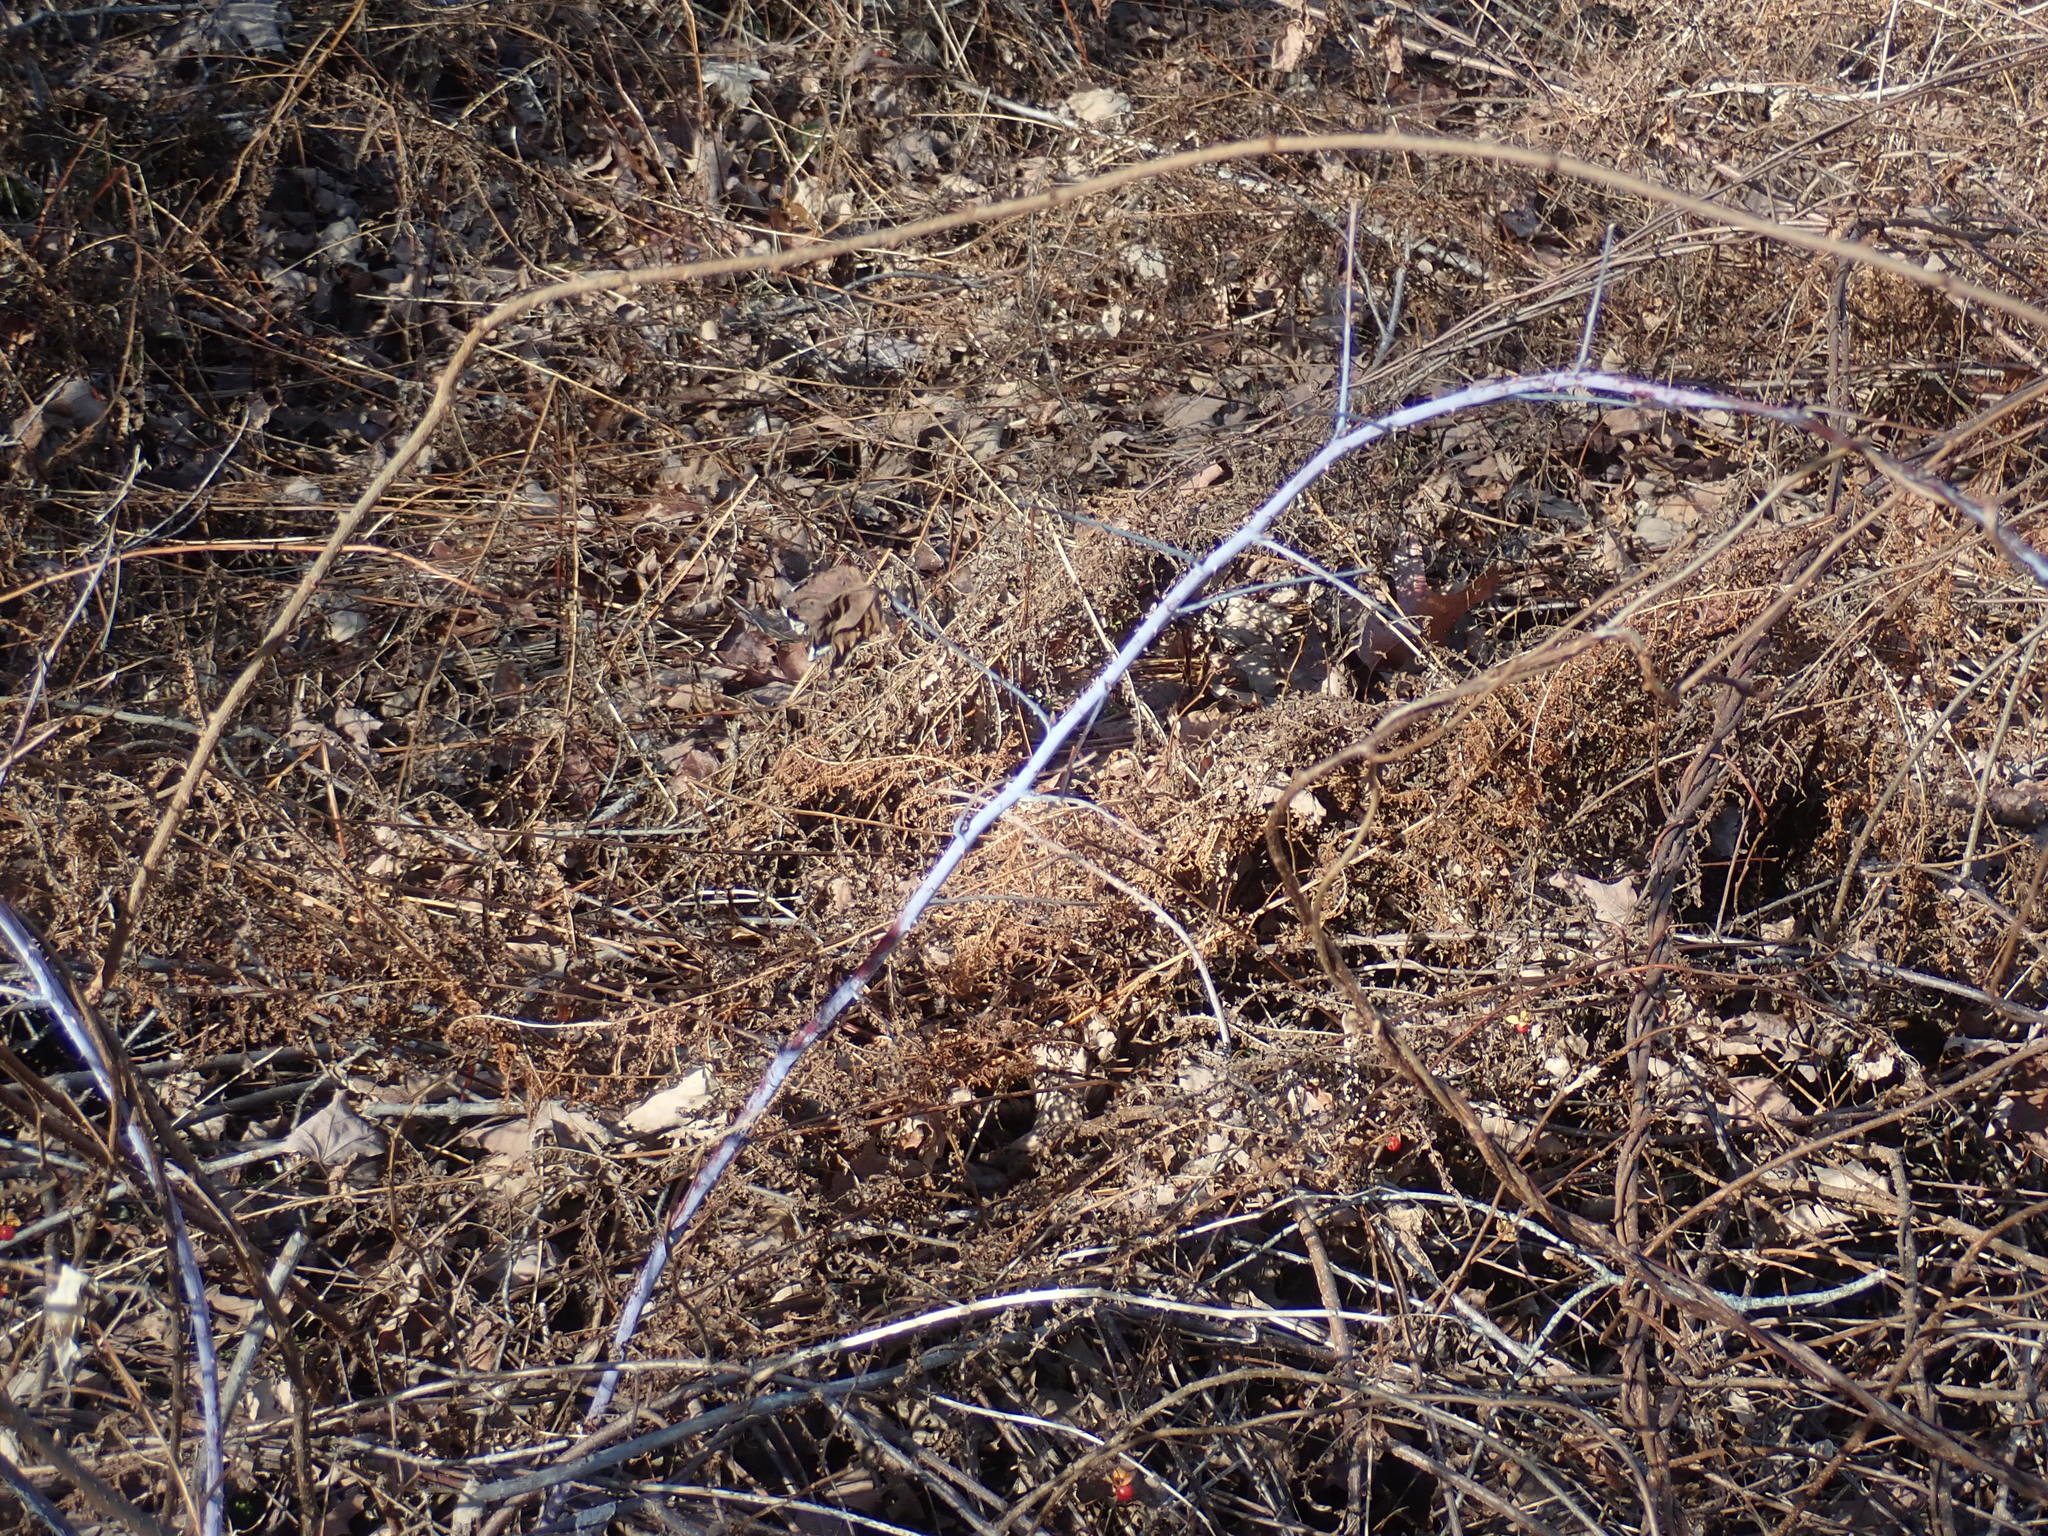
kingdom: Plantae
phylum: Tracheophyta
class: Magnoliopsida
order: Rosales
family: Rosaceae
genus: Rubus
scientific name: Rubus occidentalis
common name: Black raspberry
